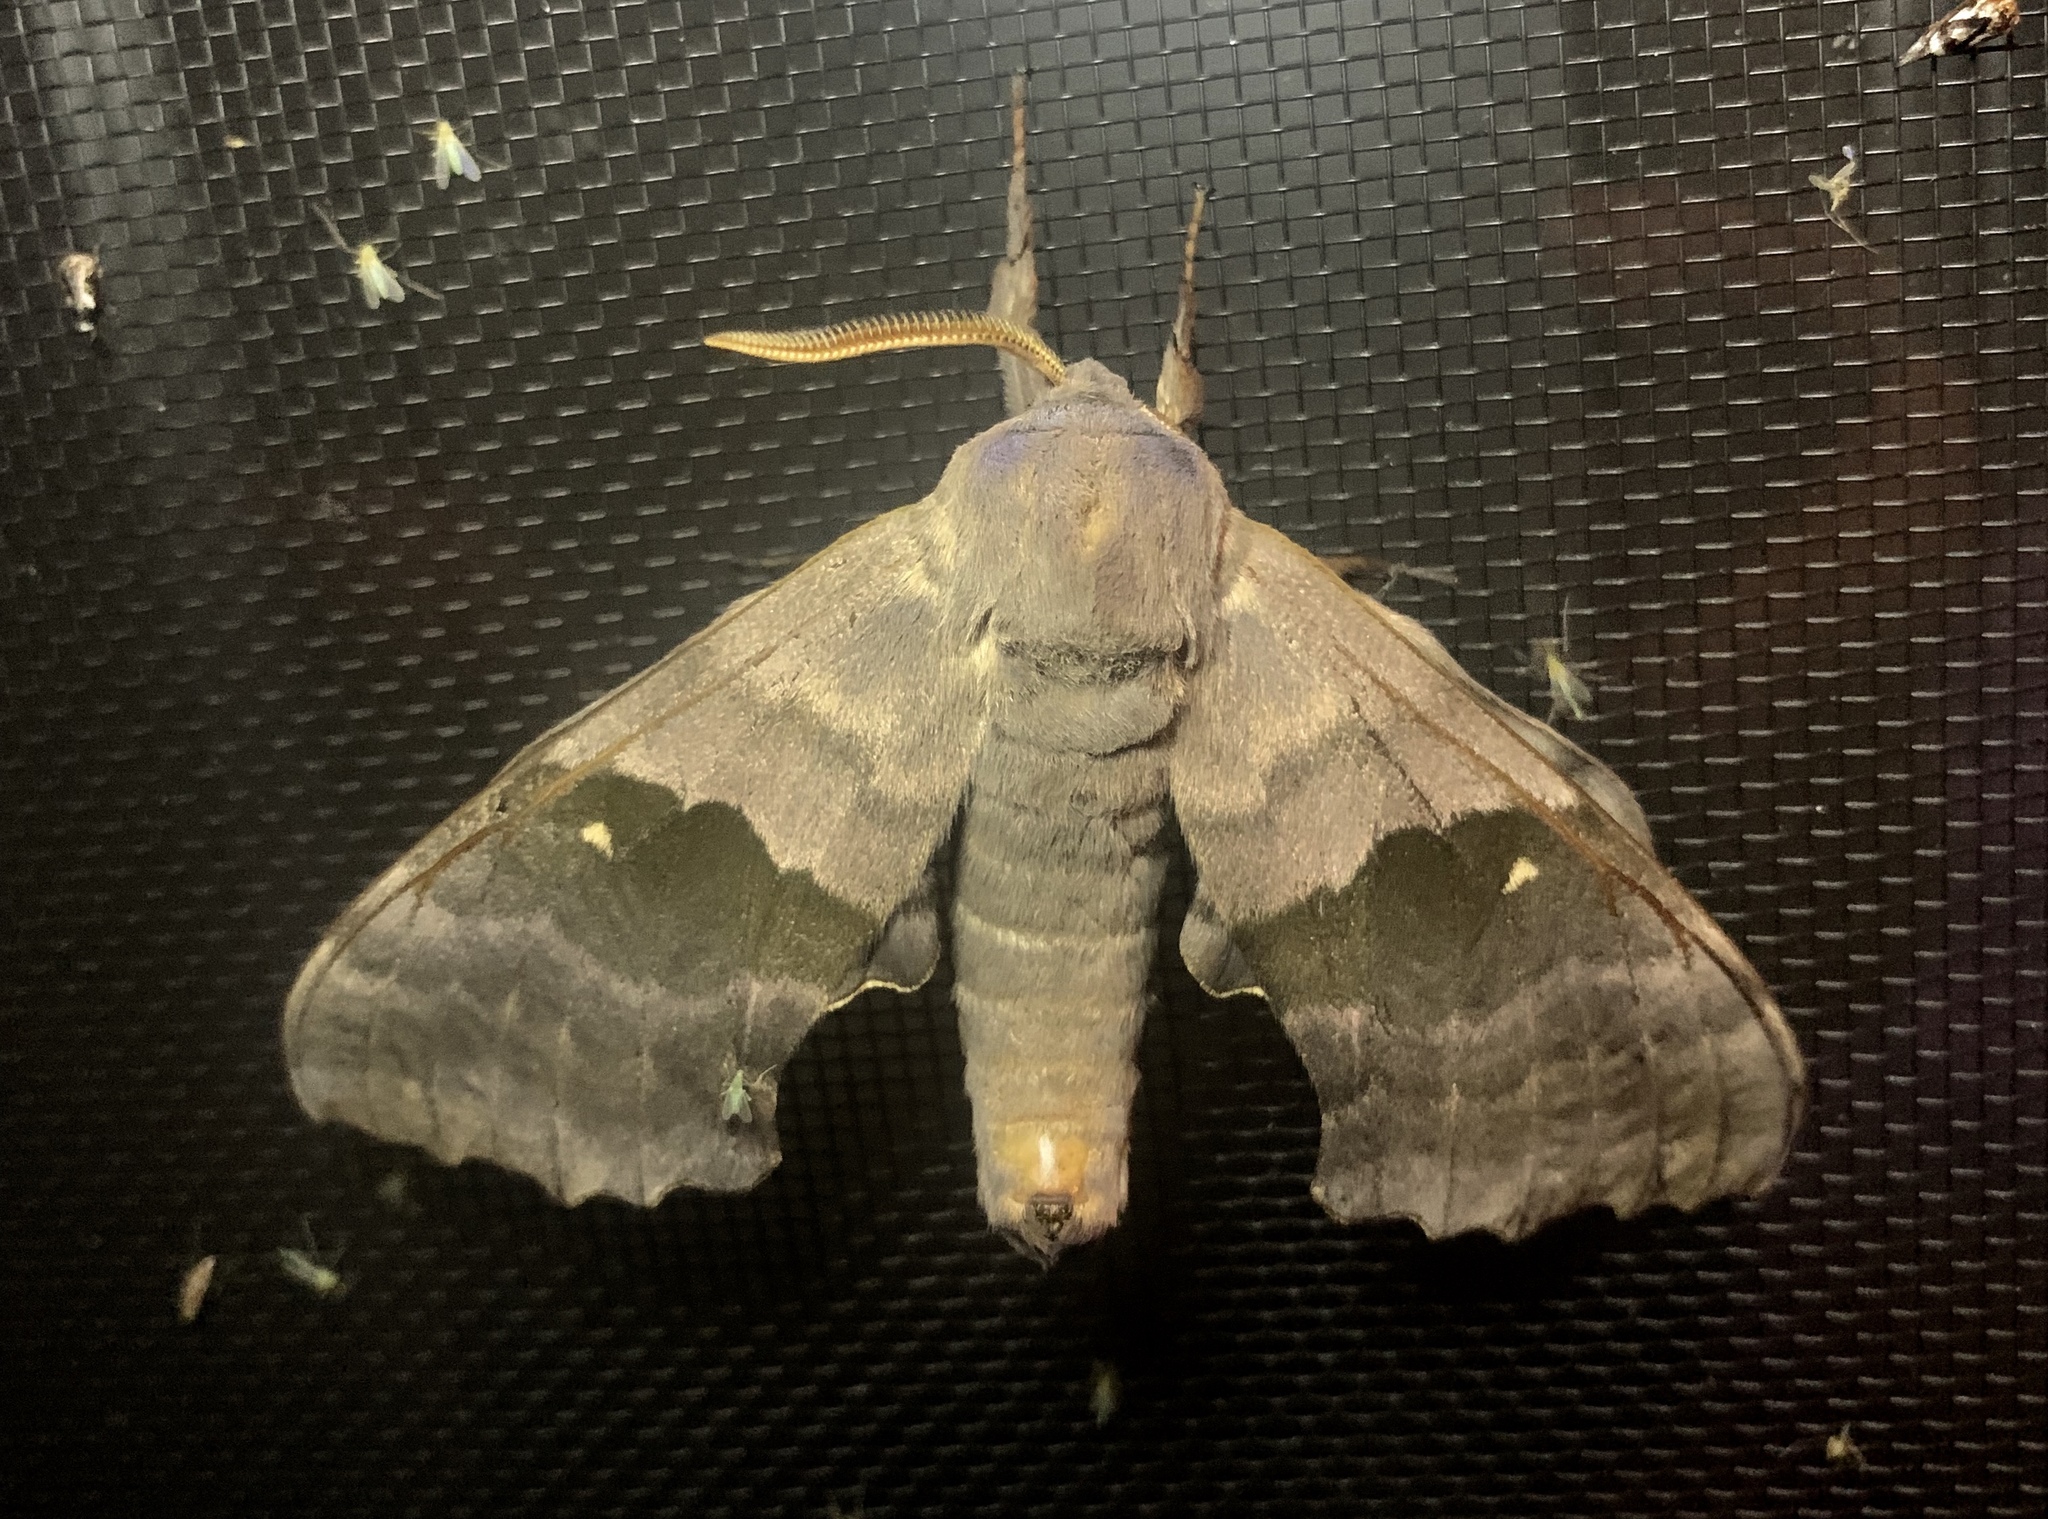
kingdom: Animalia
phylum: Arthropoda
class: Insecta
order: Lepidoptera
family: Sphingidae
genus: Pachysphinx
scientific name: Pachysphinx modesta
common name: Big poplar sphinx
